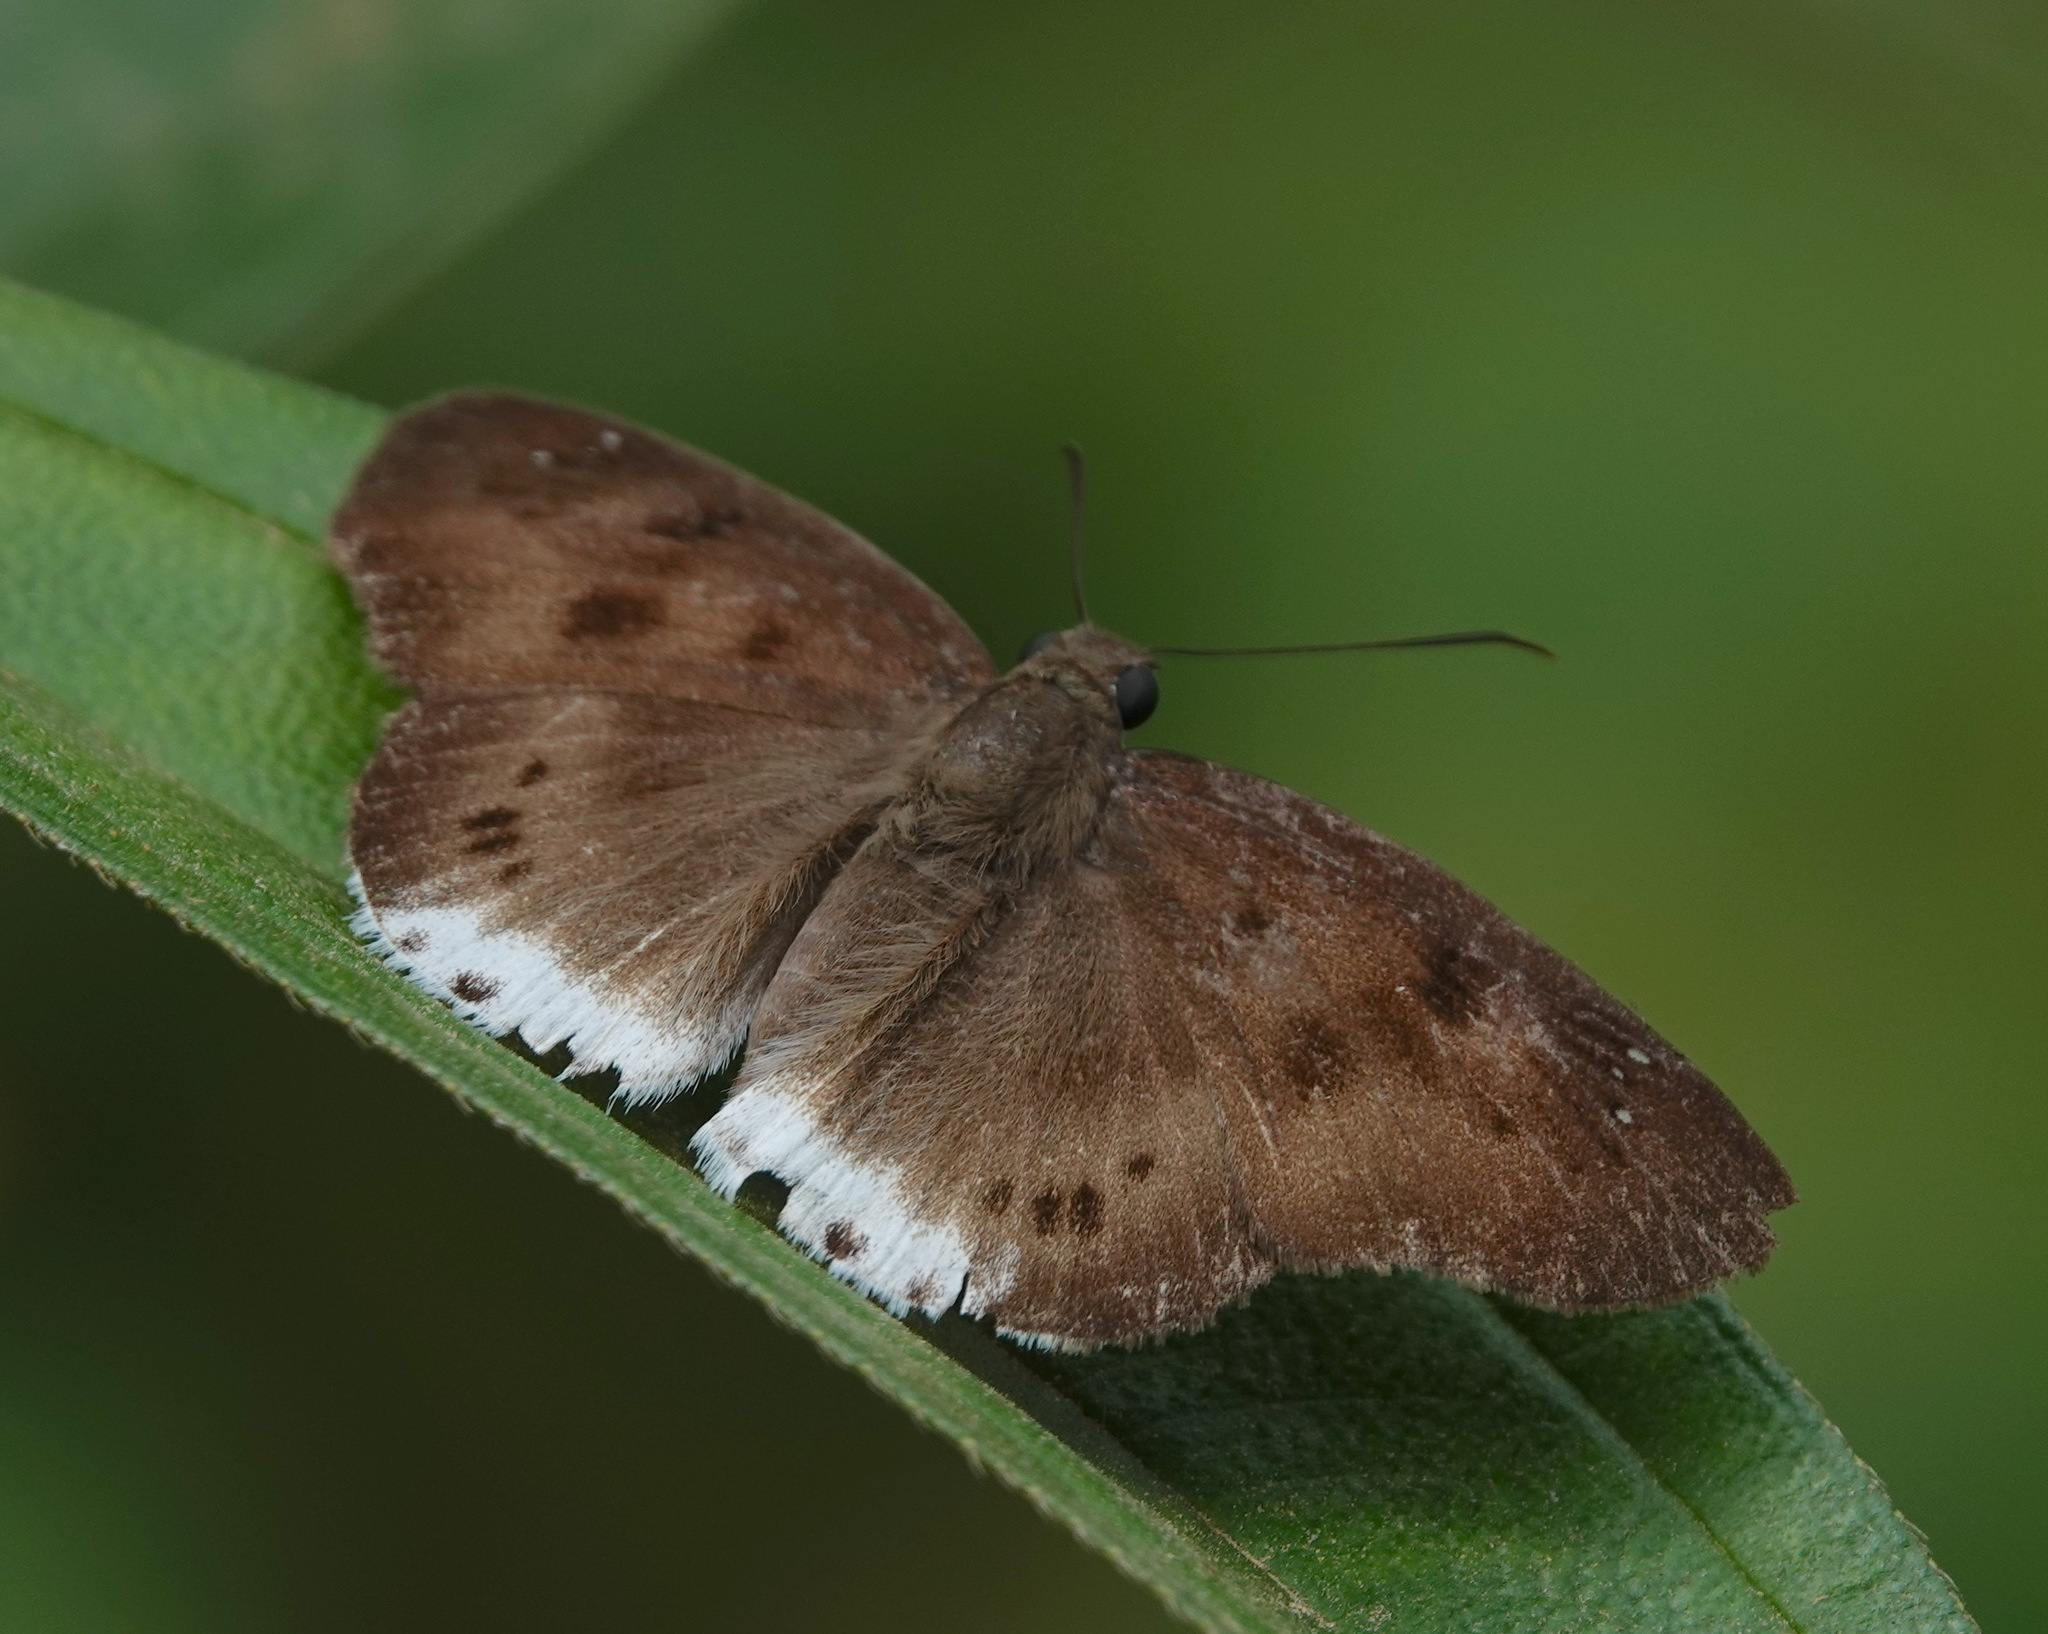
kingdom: Animalia
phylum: Arthropoda
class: Insecta
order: Lepidoptera
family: Hesperiidae
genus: Tagiades
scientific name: Tagiades gana
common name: Suffused snow flat
